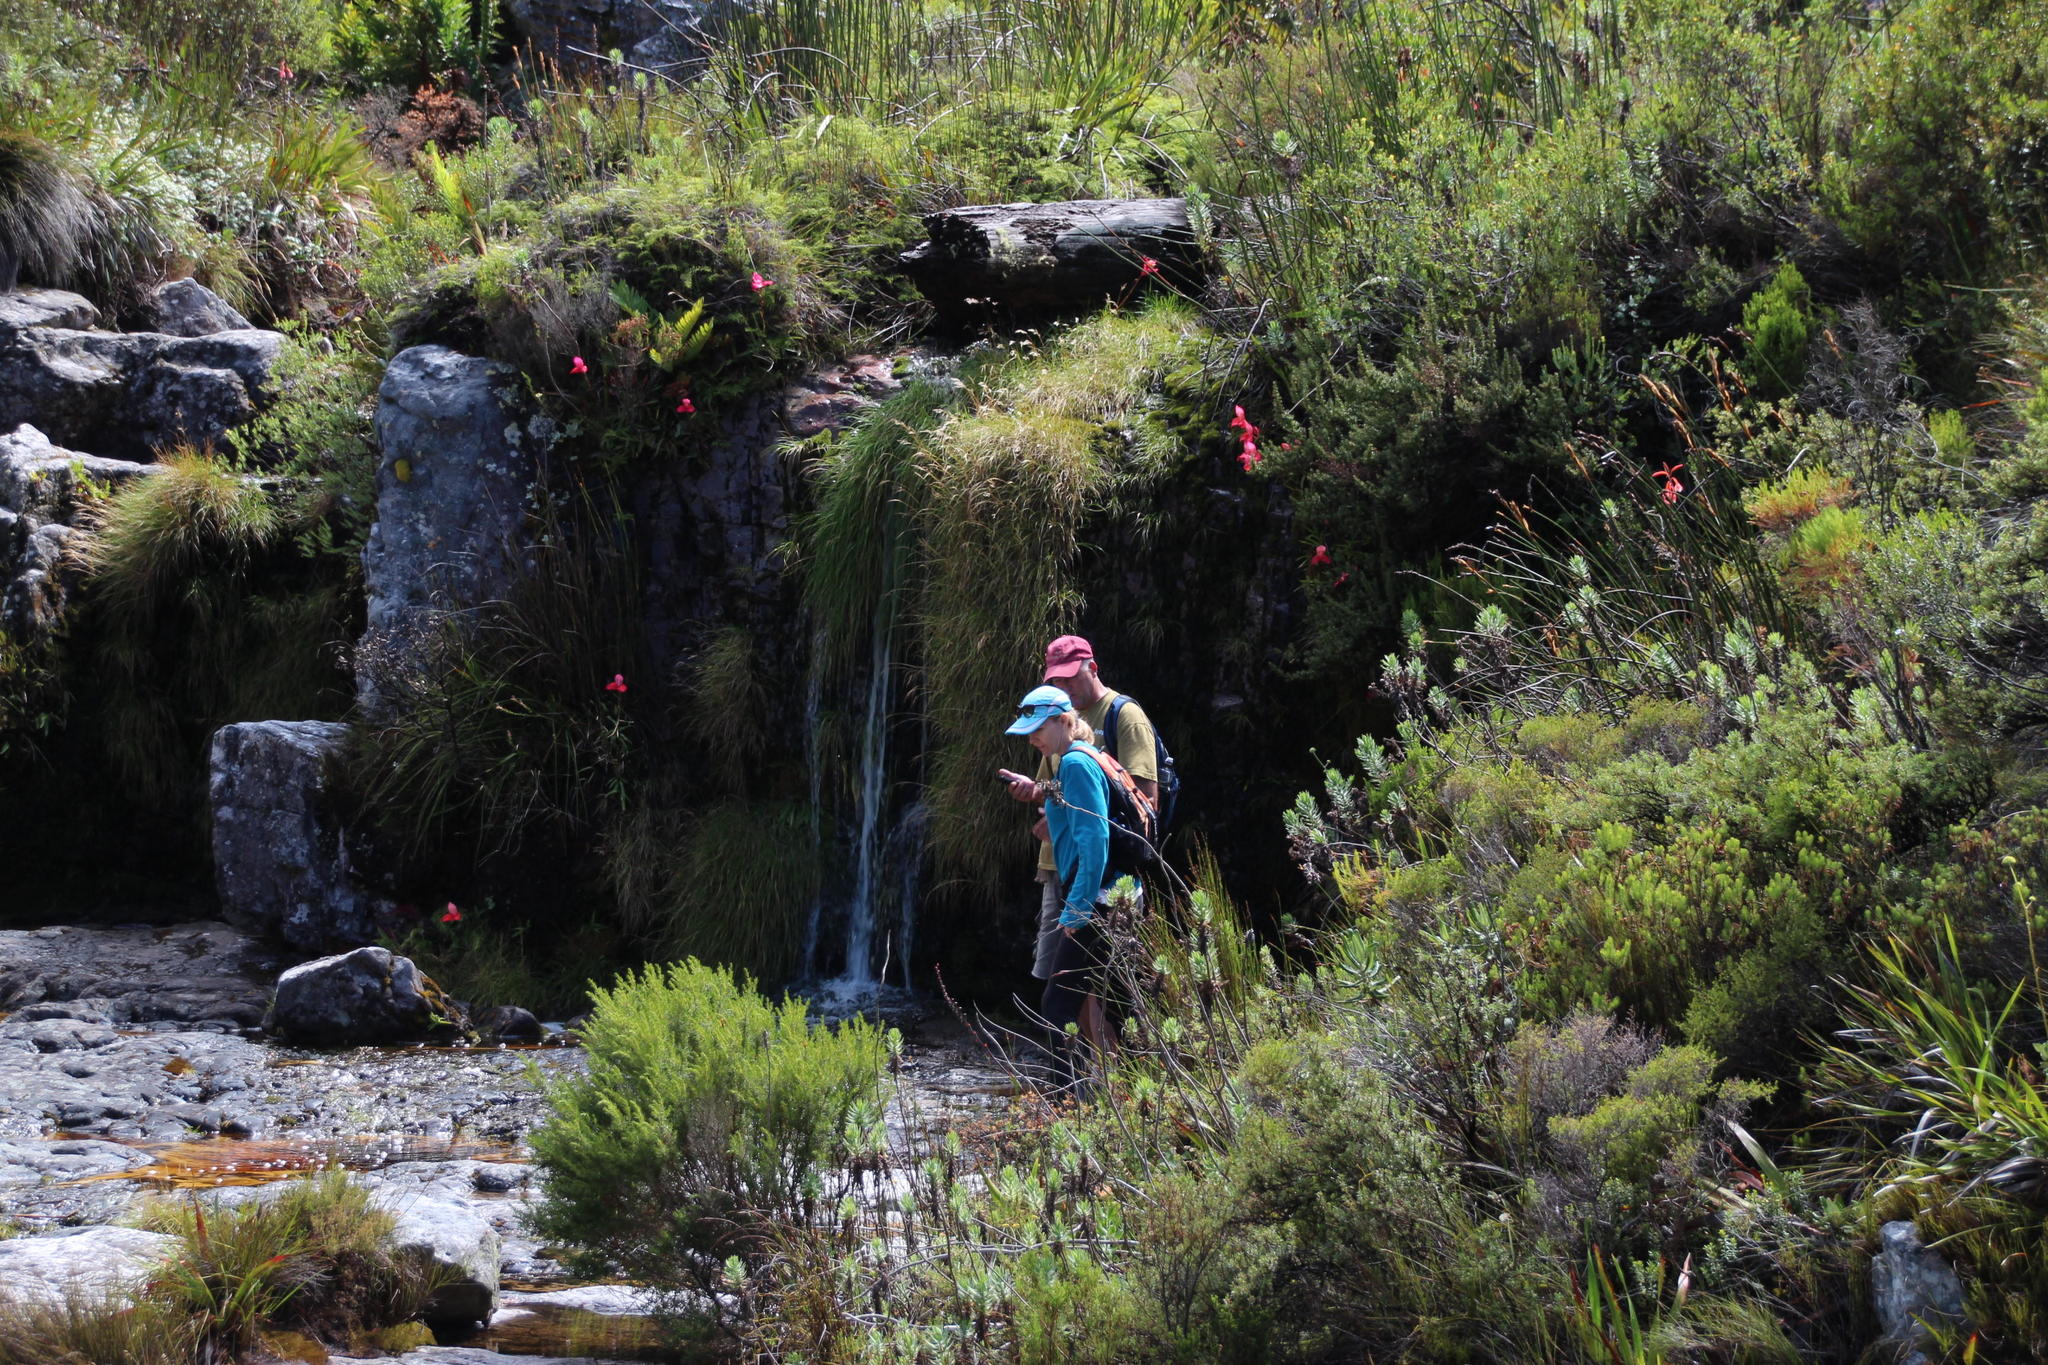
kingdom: Plantae
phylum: Tracheophyta
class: Liliopsida
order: Asparagales
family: Orchidaceae
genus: Disa
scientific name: Disa uniflora
